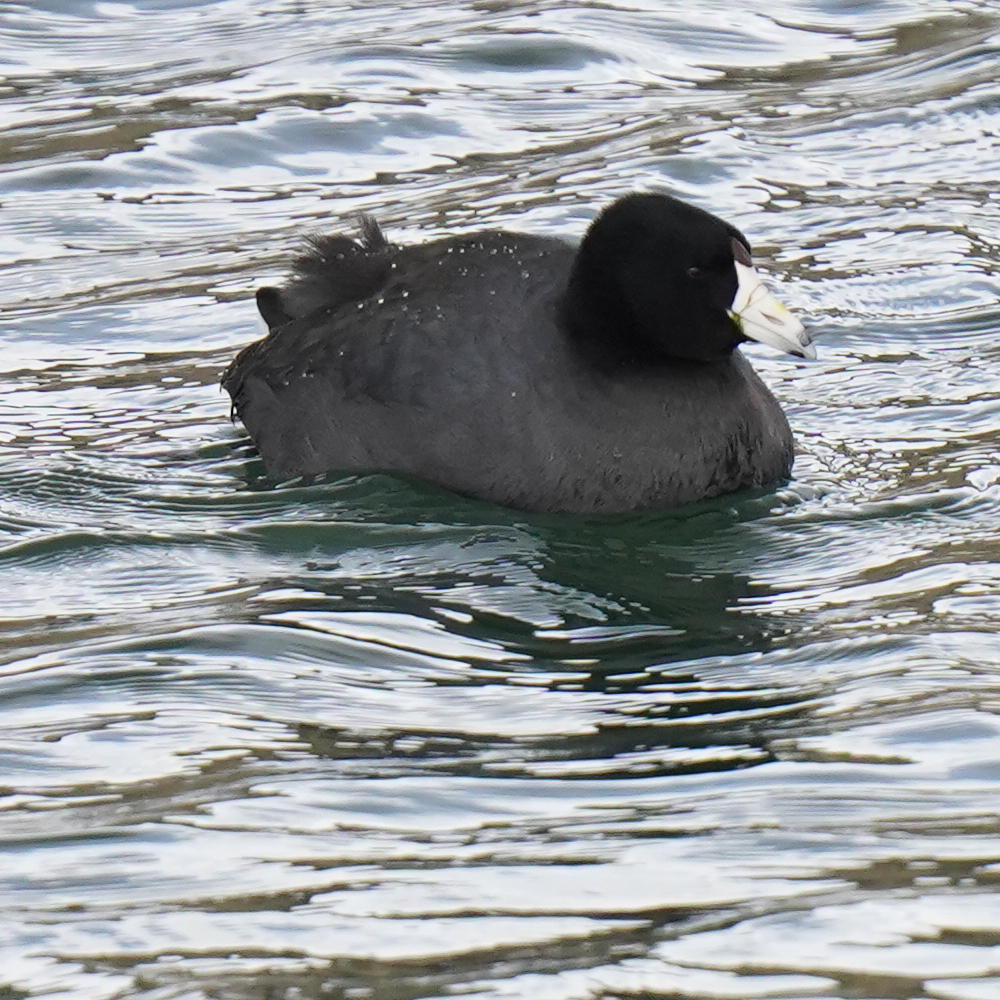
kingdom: Animalia
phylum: Chordata
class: Aves
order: Gruiformes
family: Rallidae
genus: Fulica
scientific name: Fulica americana
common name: American coot
